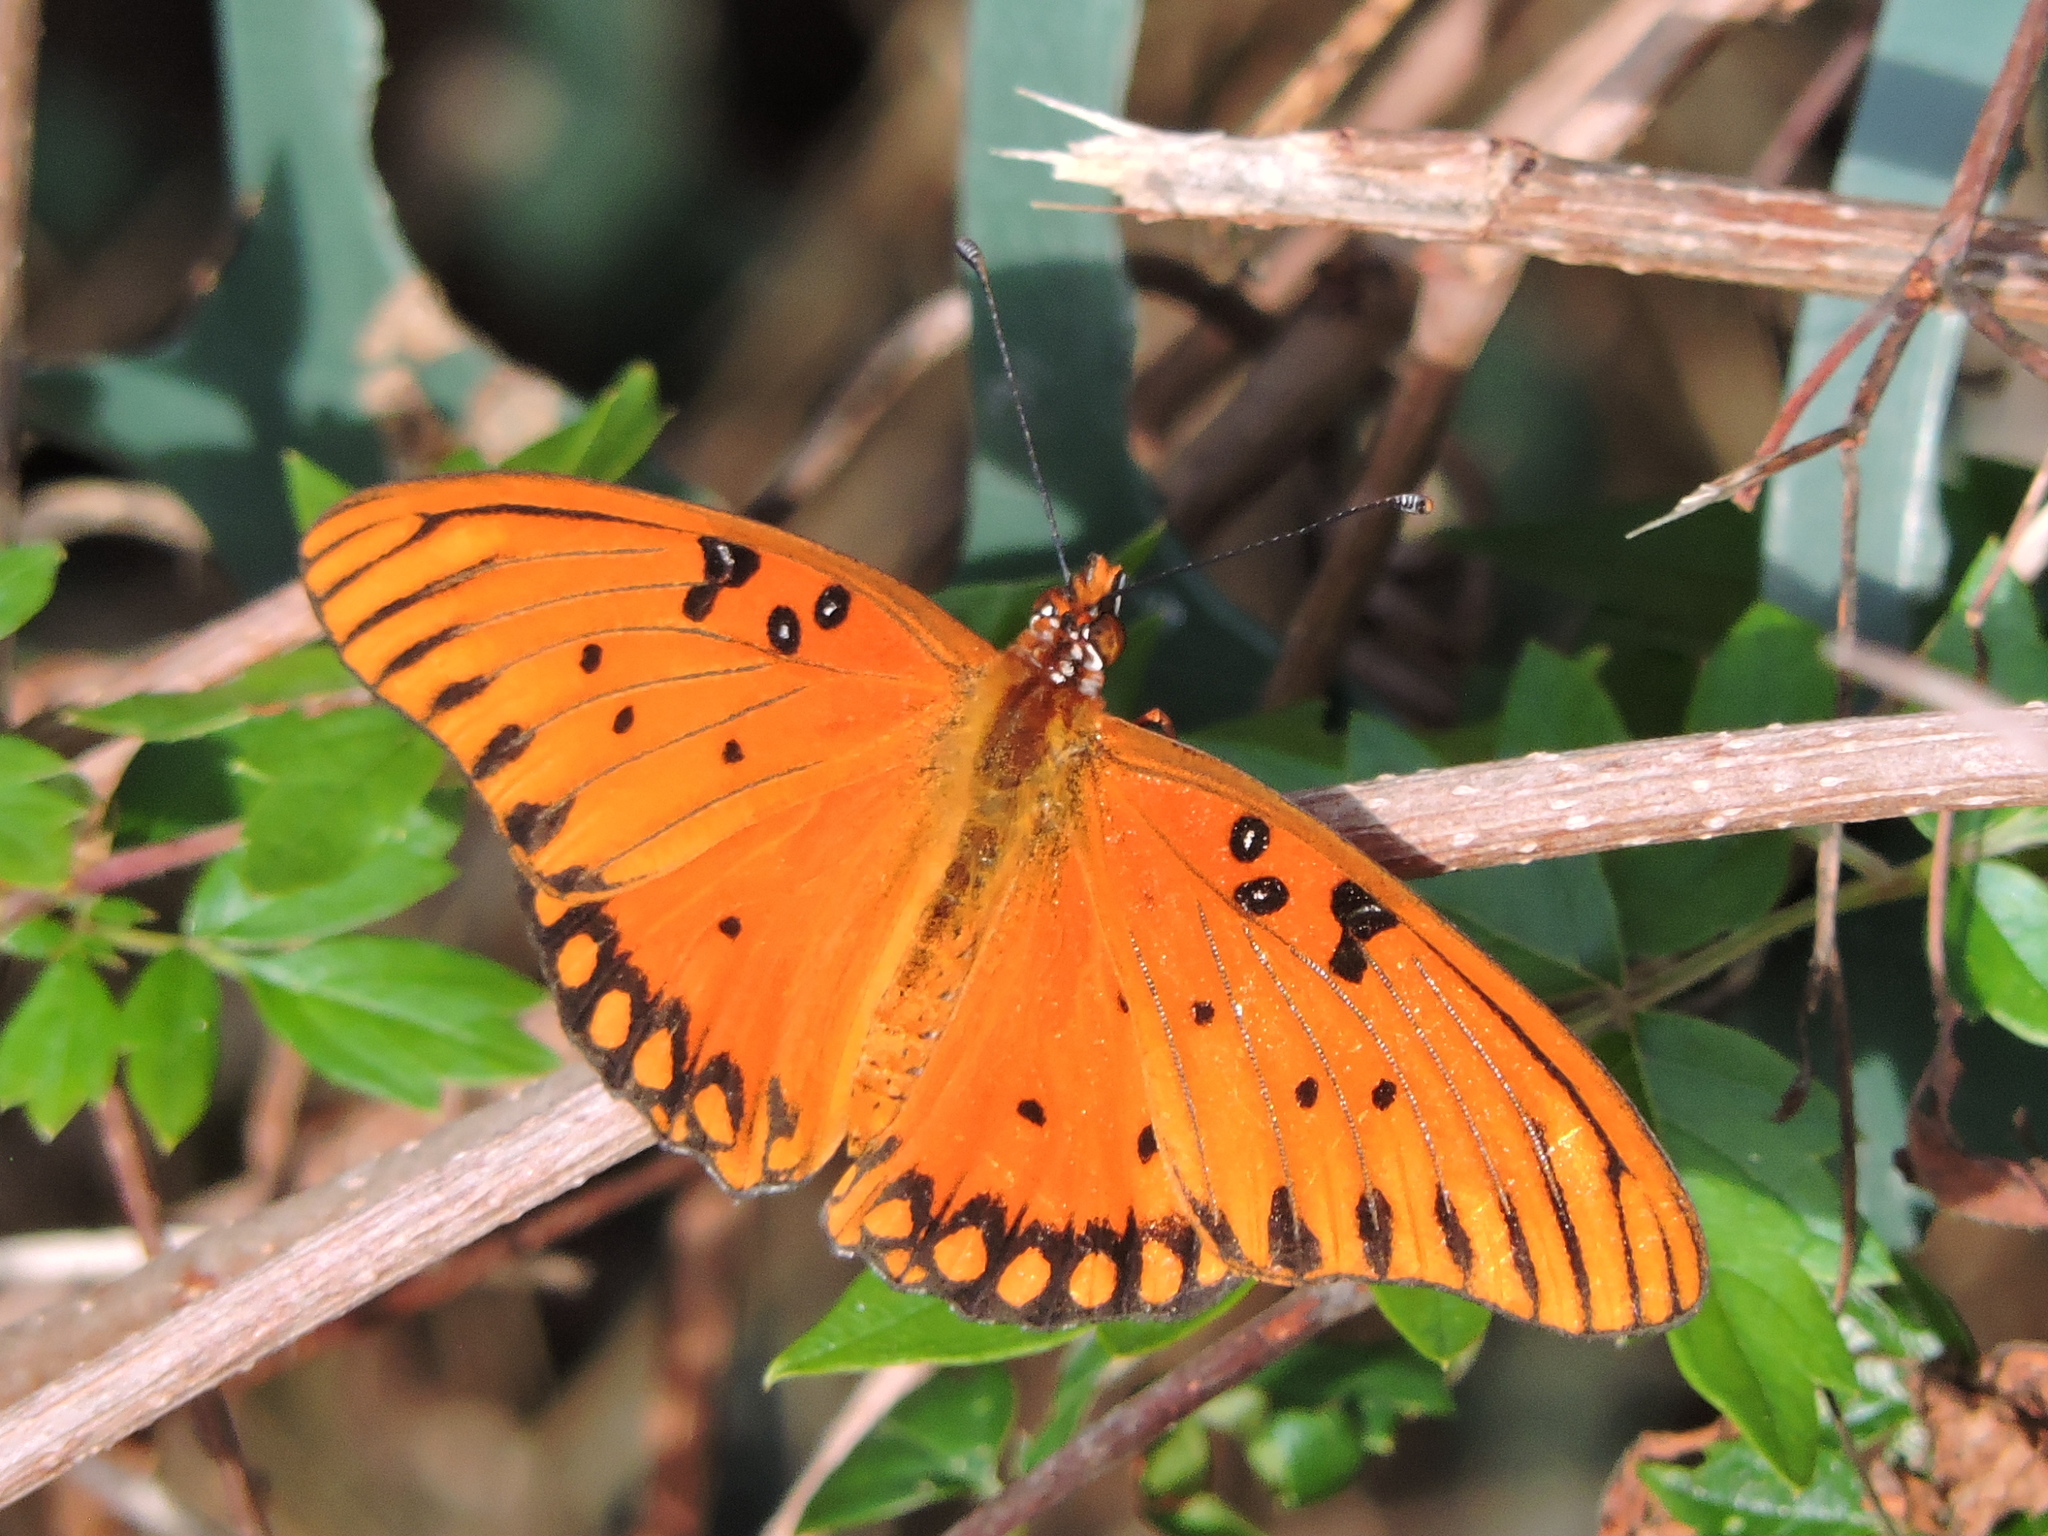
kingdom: Animalia
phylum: Arthropoda
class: Insecta
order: Lepidoptera
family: Nymphalidae
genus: Dione
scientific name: Dione vanillae
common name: Gulf fritillary
